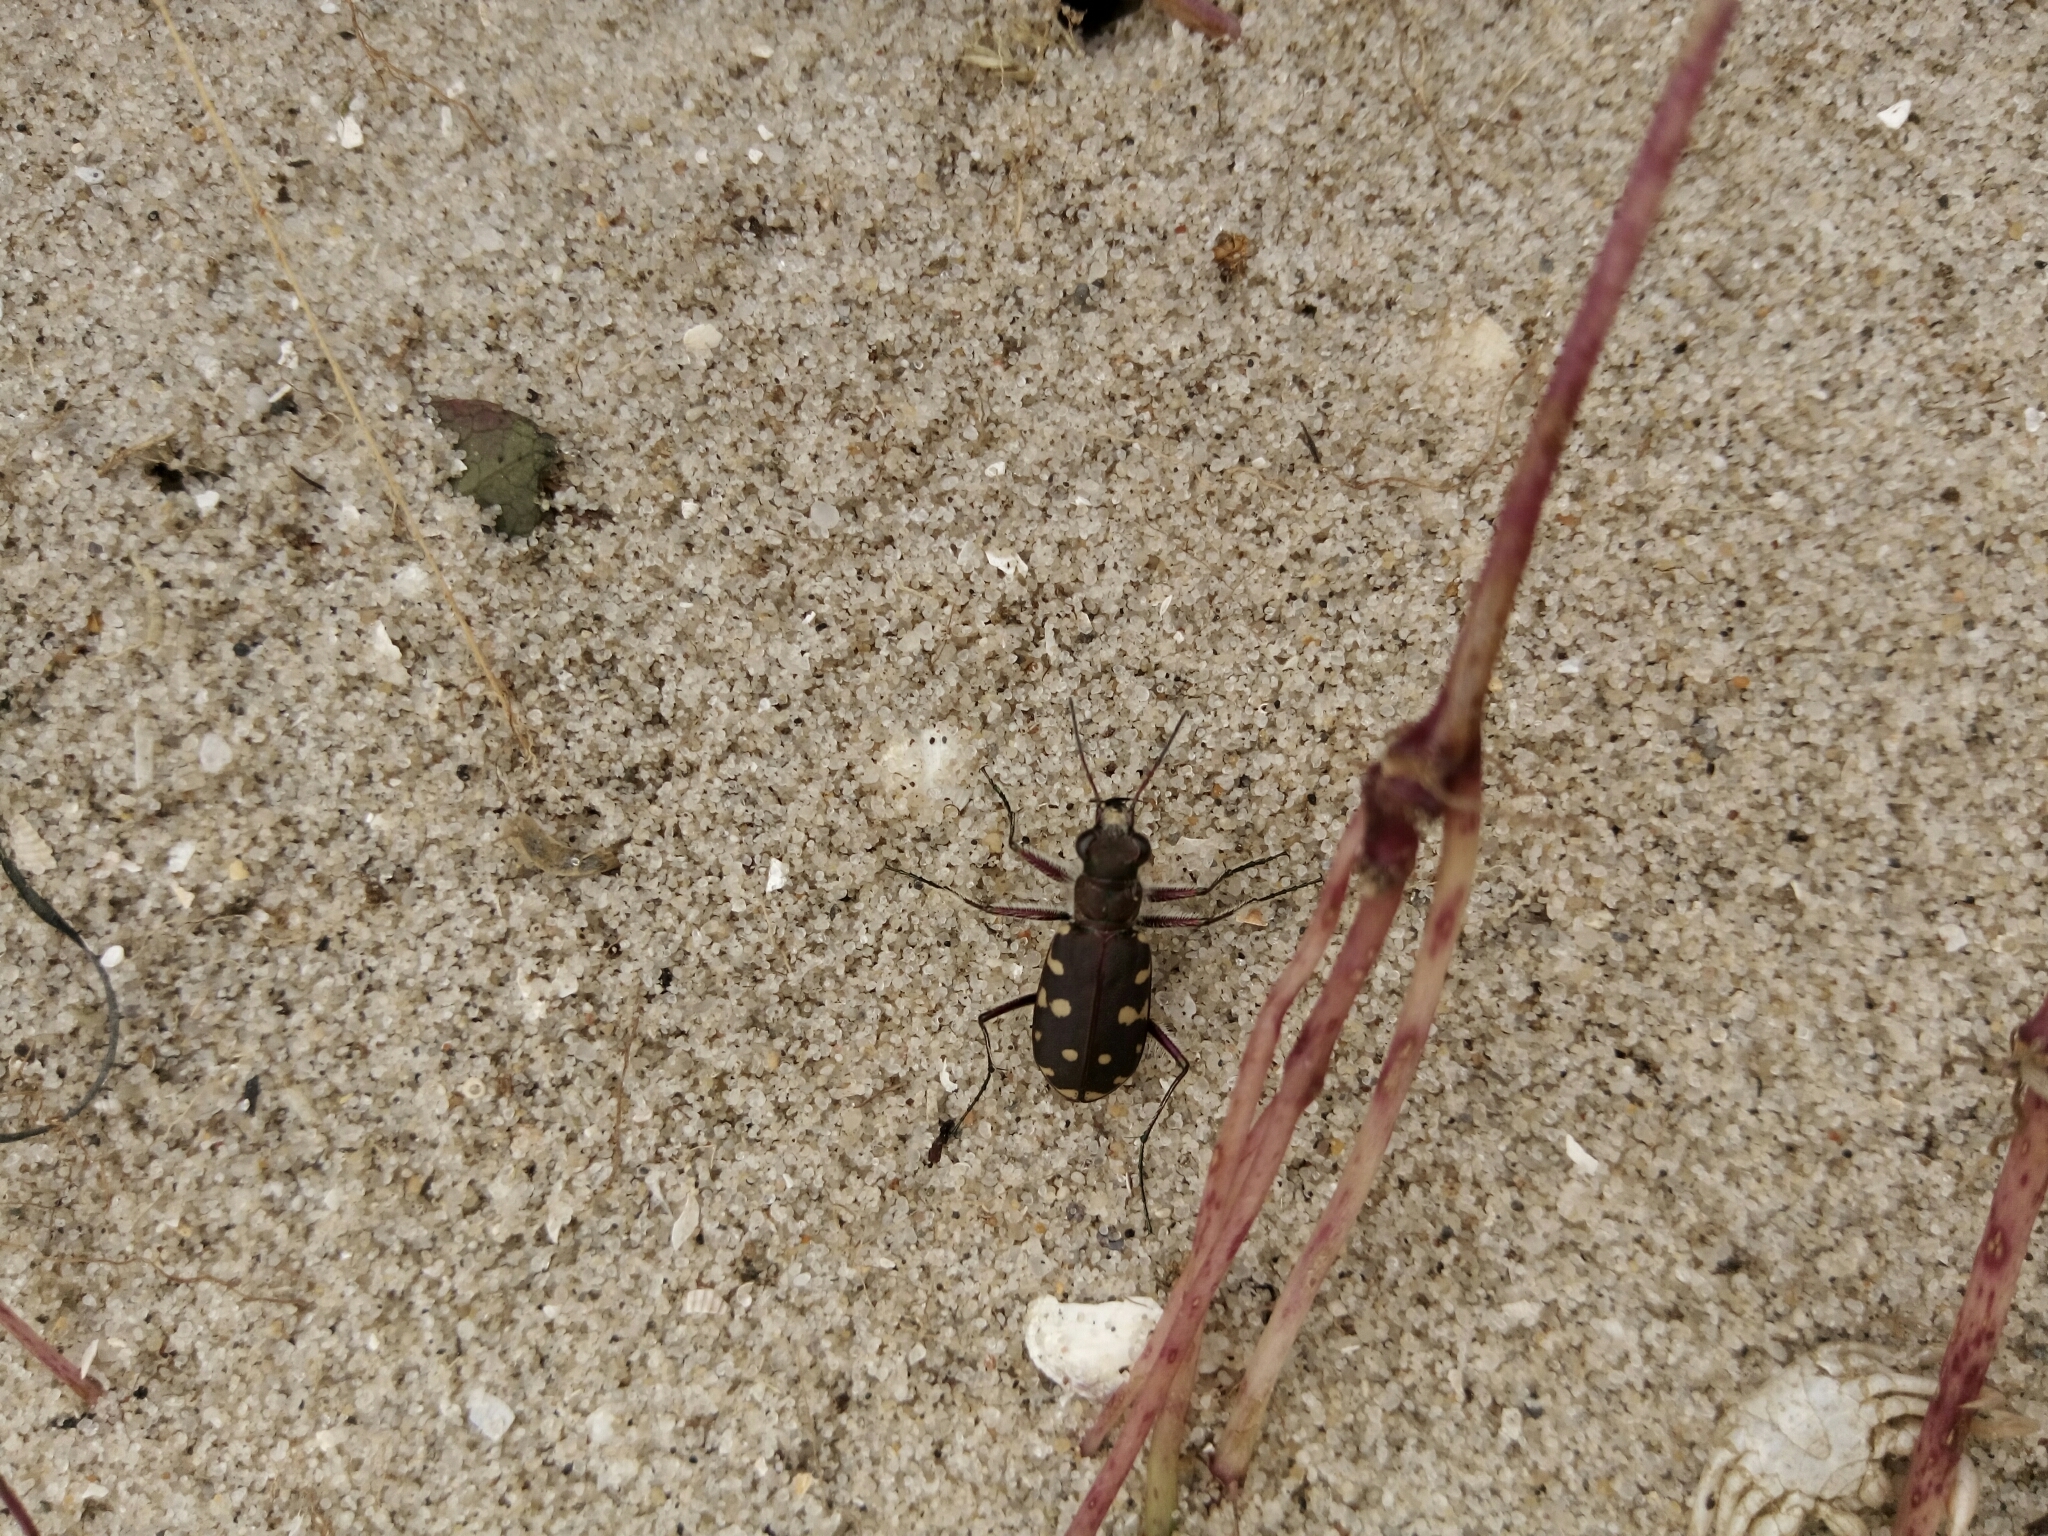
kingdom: Animalia
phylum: Arthropoda
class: Insecta
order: Coleoptera
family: Carabidae
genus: Cicindela
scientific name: Cicindela littoralis
